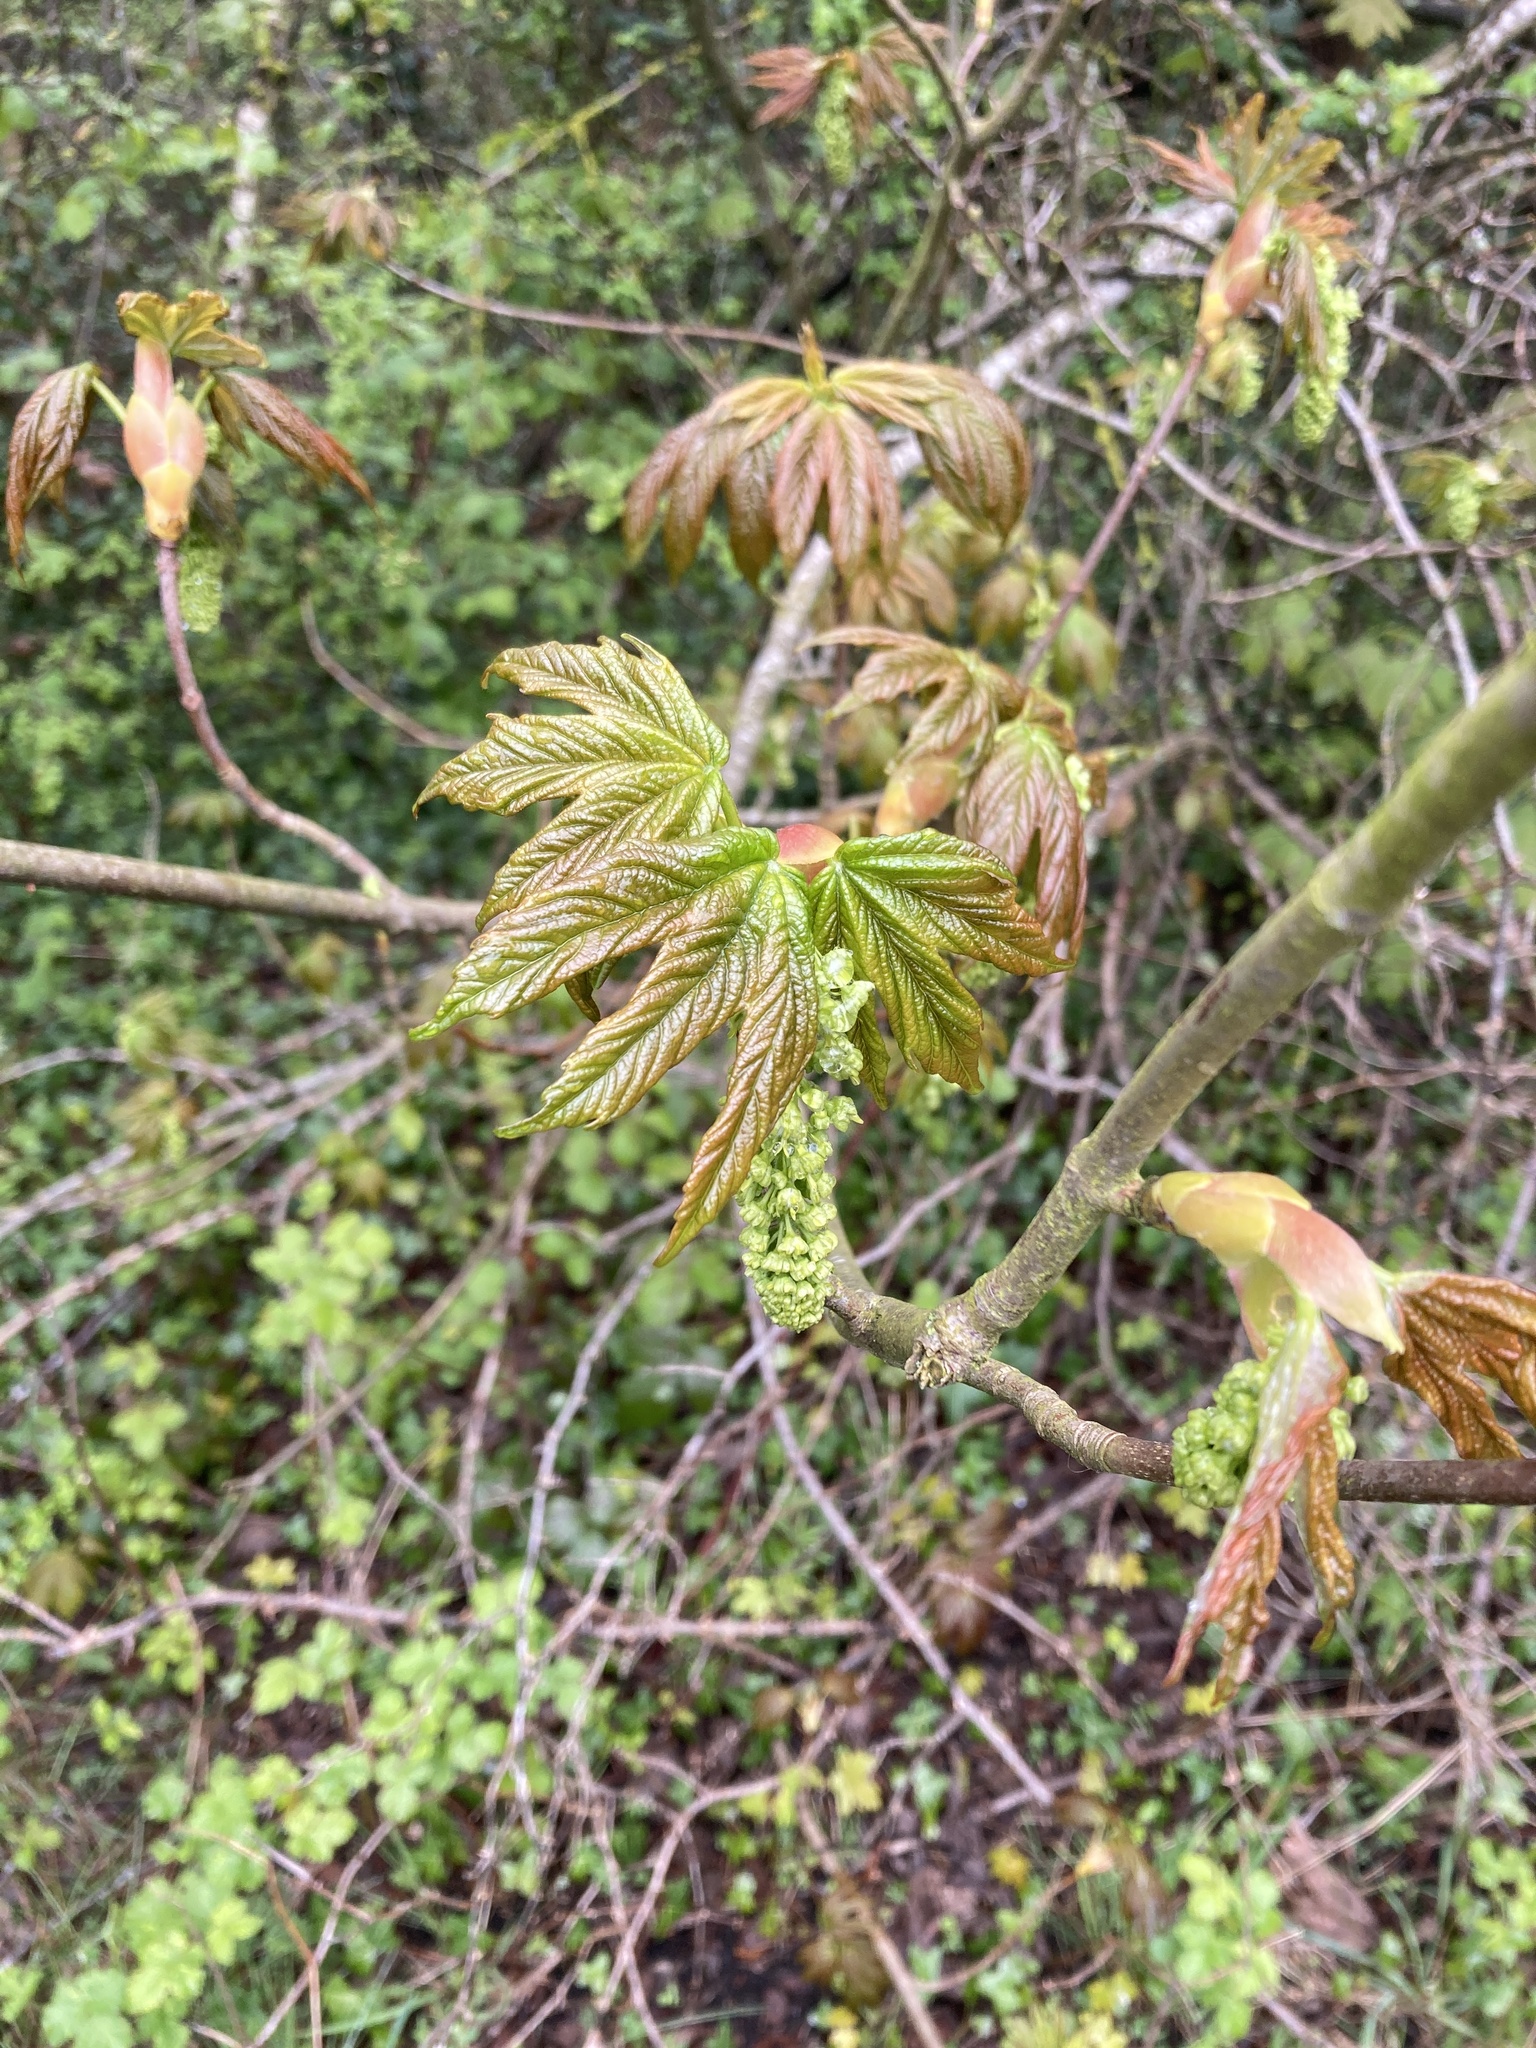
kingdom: Plantae
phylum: Tracheophyta
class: Magnoliopsida
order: Sapindales
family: Sapindaceae
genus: Acer
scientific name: Acer pseudoplatanus
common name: Sycamore
